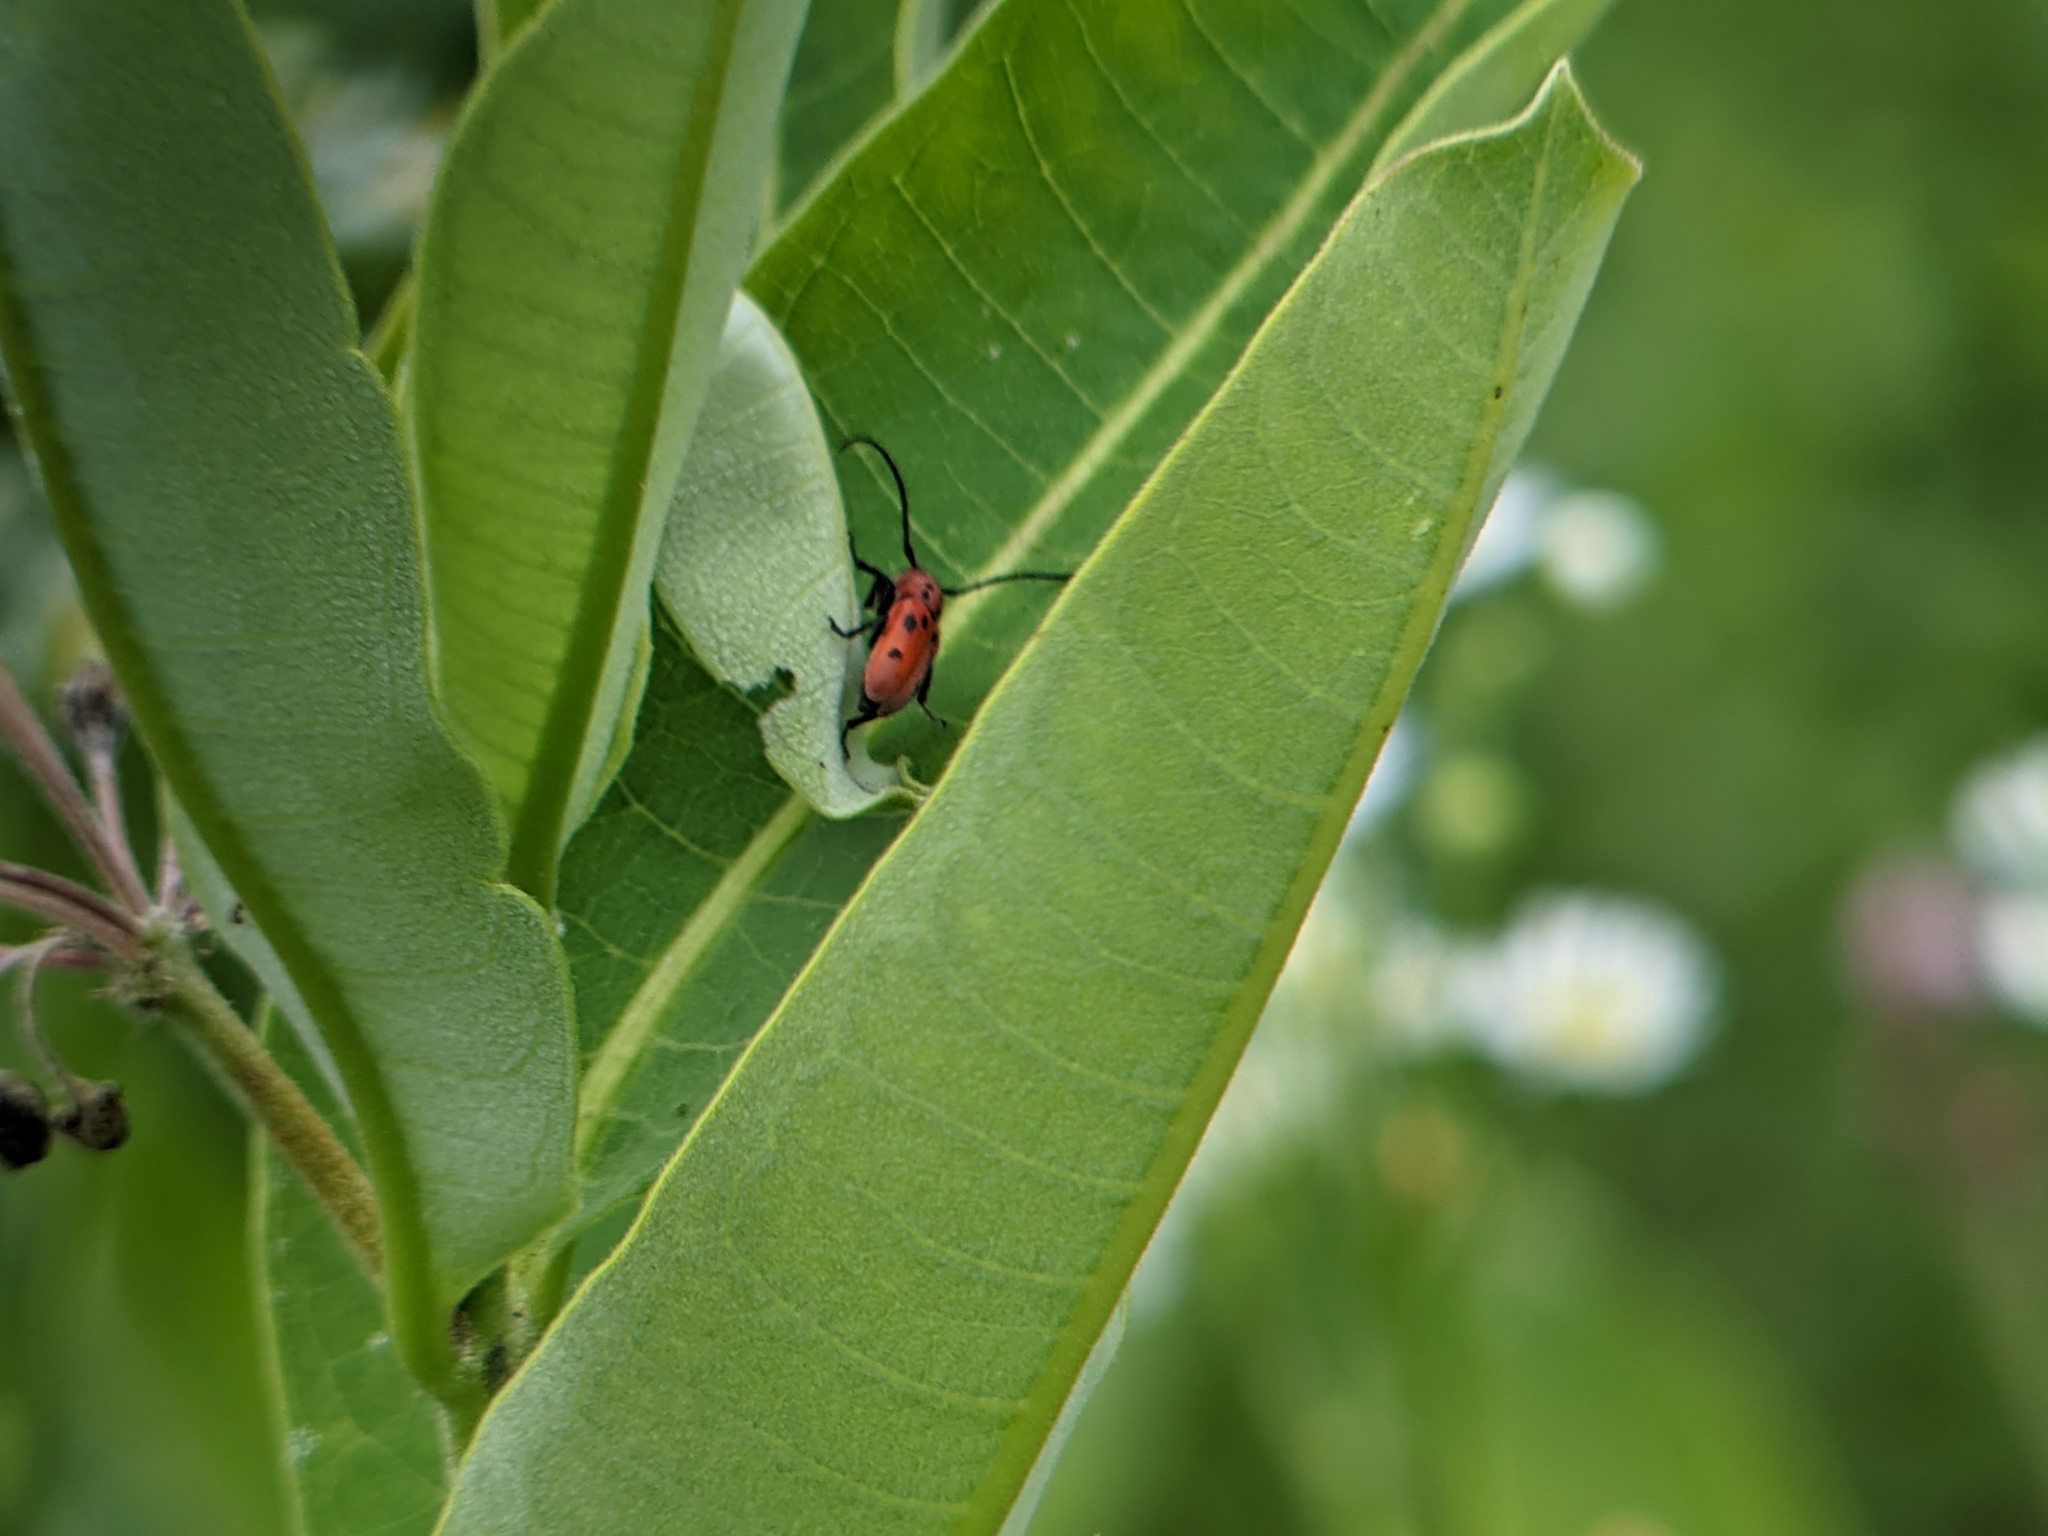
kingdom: Animalia
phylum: Arthropoda
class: Insecta
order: Coleoptera
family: Cerambycidae
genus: Tetraopes
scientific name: Tetraopes tetrophthalmus
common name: Red milkweed beetle
